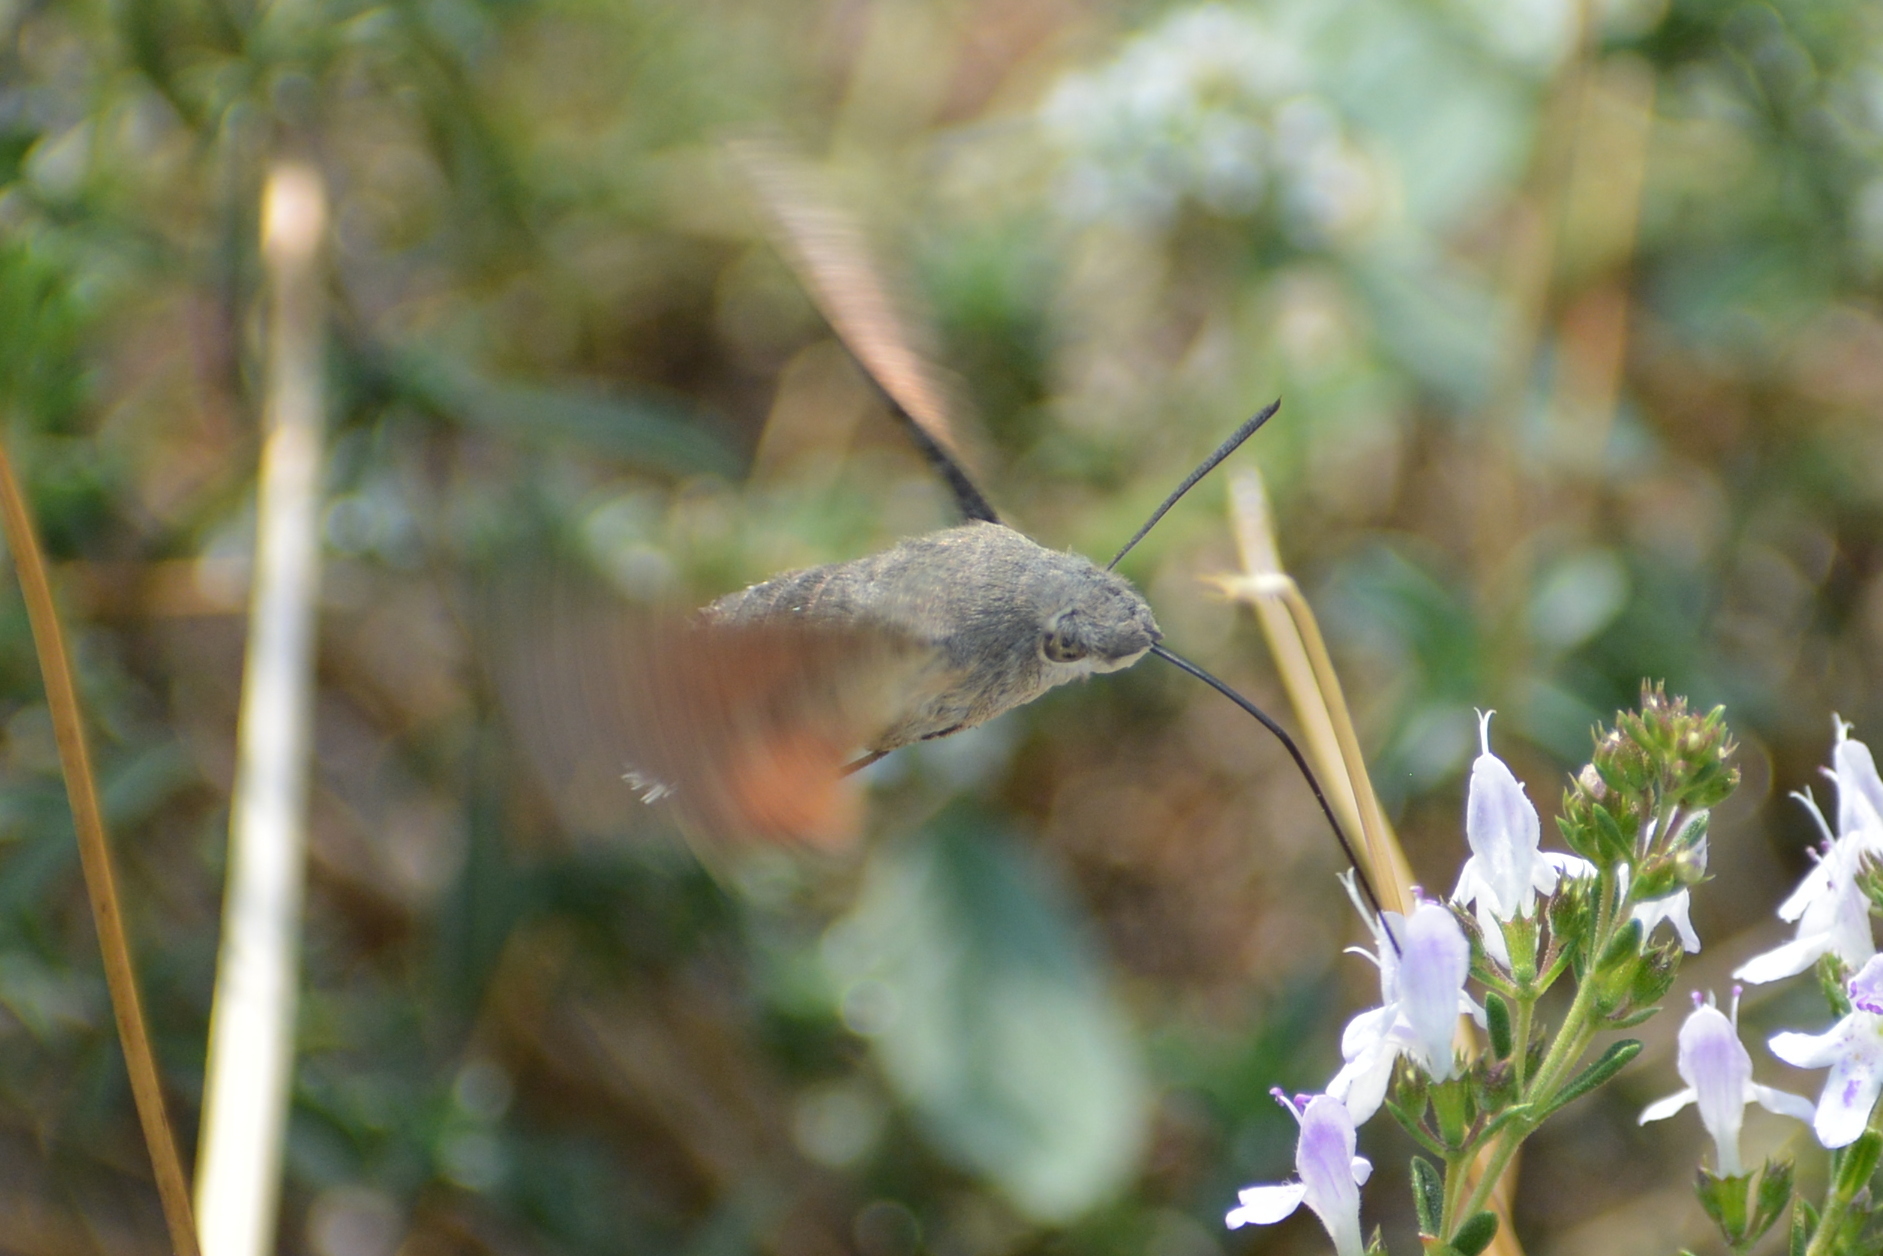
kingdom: Animalia
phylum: Arthropoda
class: Insecta
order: Lepidoptera
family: Sphingidae
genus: Macroglossum
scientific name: Macroglossum stellatarum
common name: Humming-bird hawk-moth
